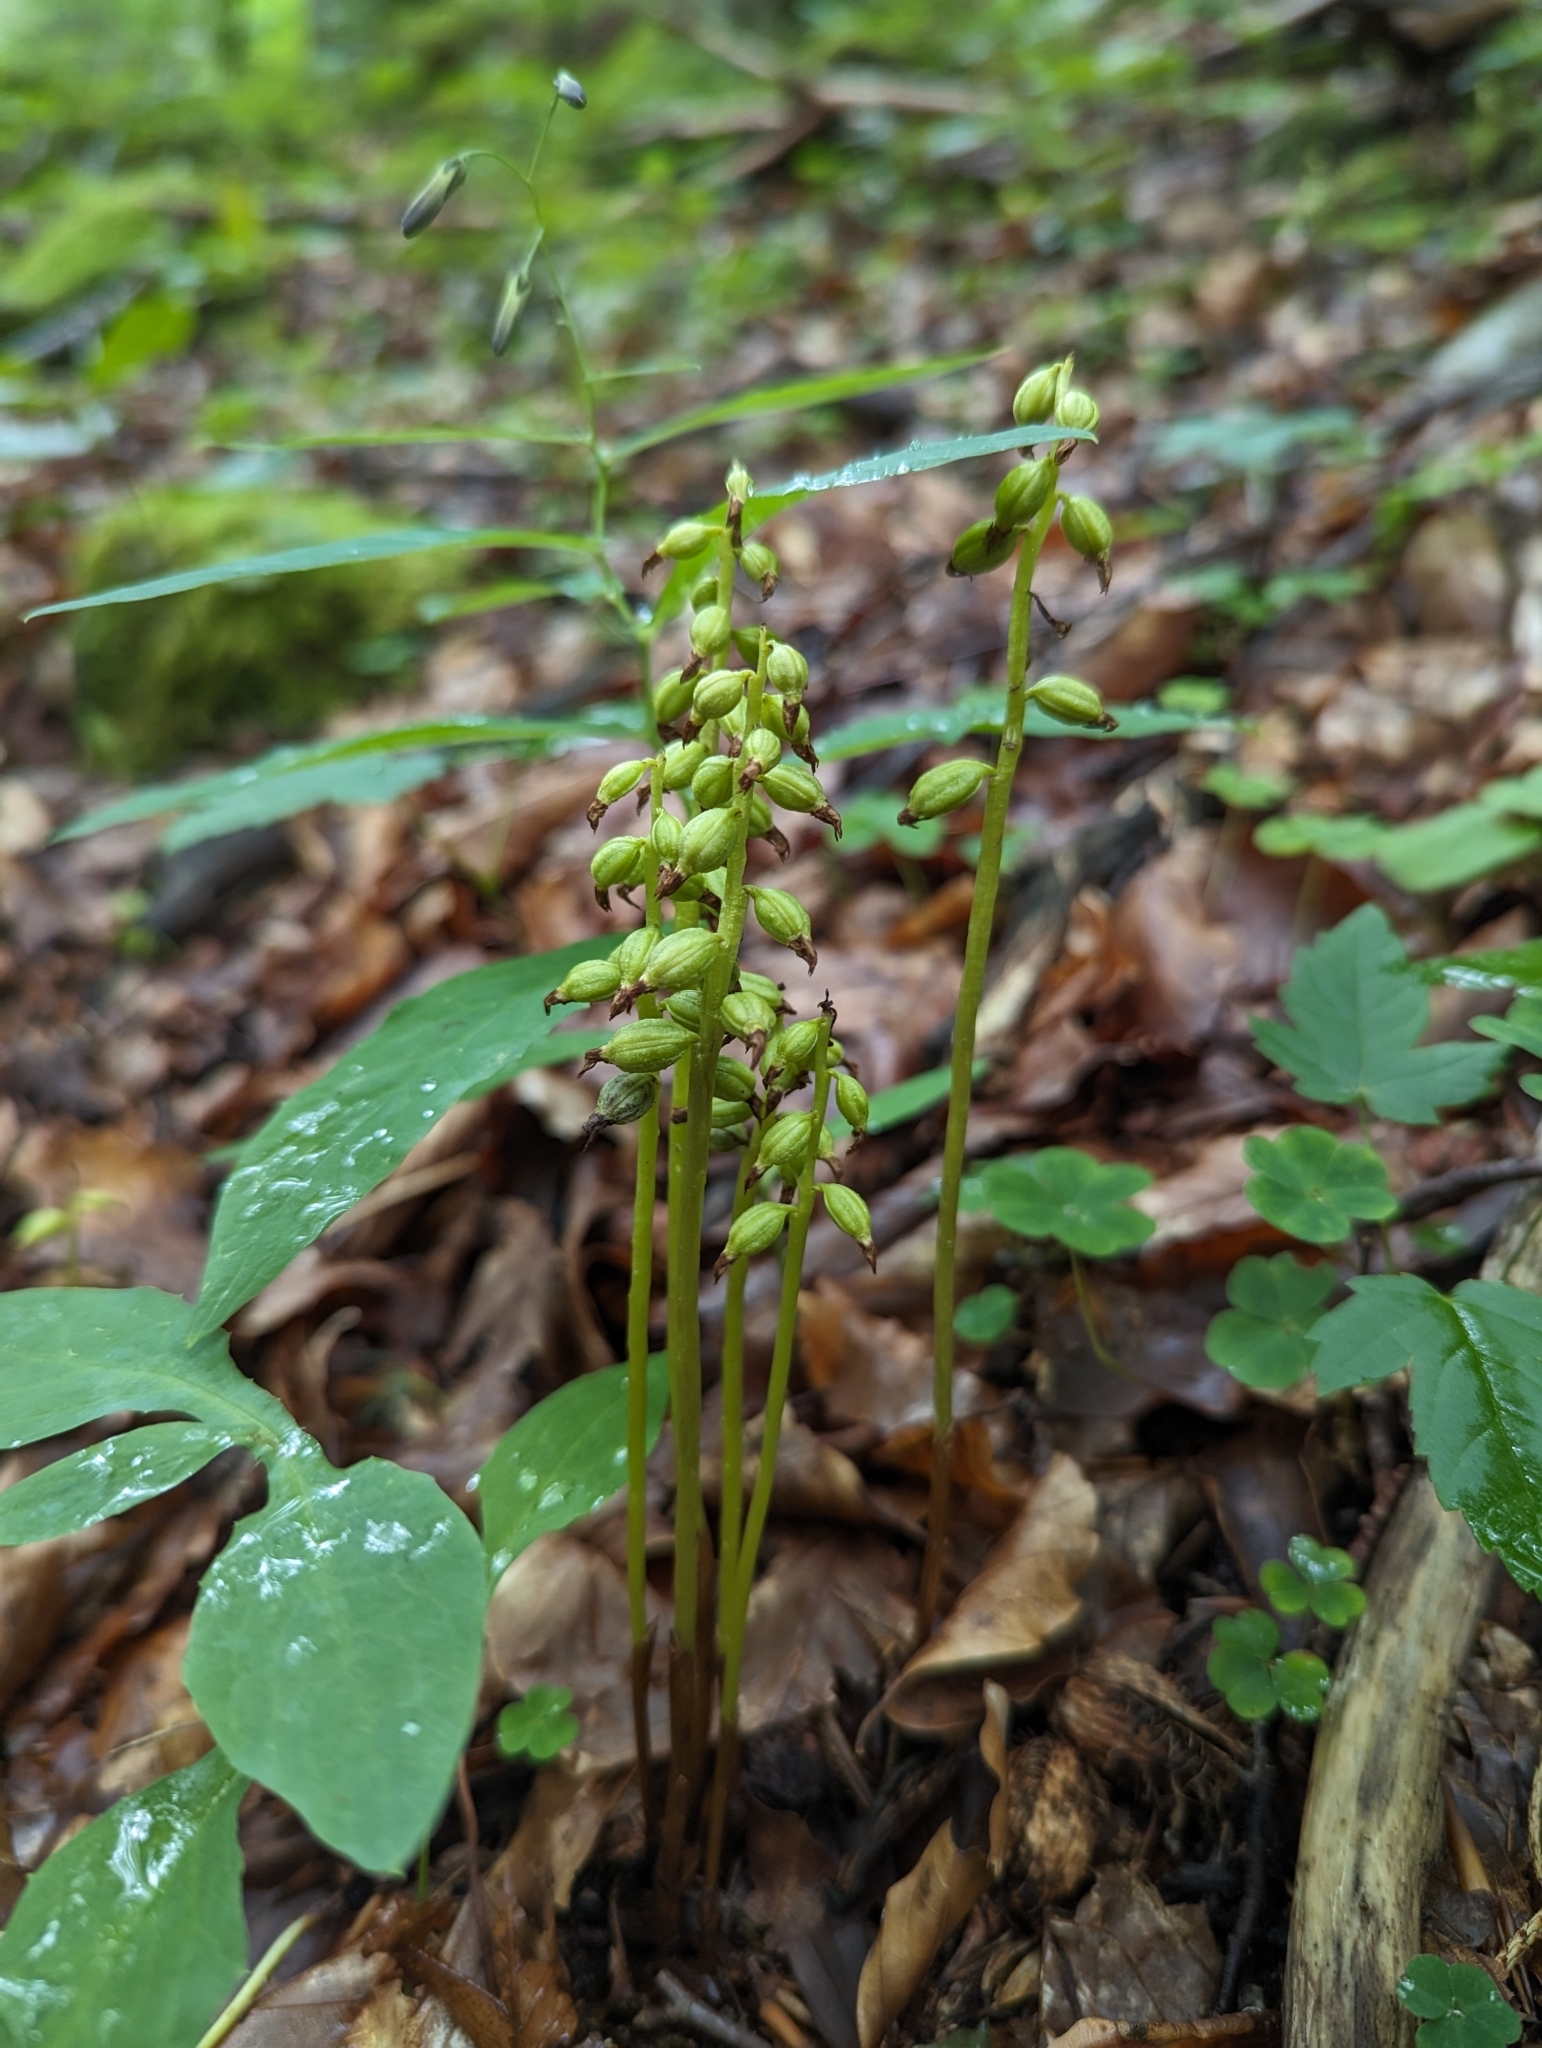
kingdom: Plantae
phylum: Tracheophyta
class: Liliopsida
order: Asparagales
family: Orchidaceae
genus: Corallorhiza
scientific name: Corallorhiza trifida
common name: Yellow coralroot
